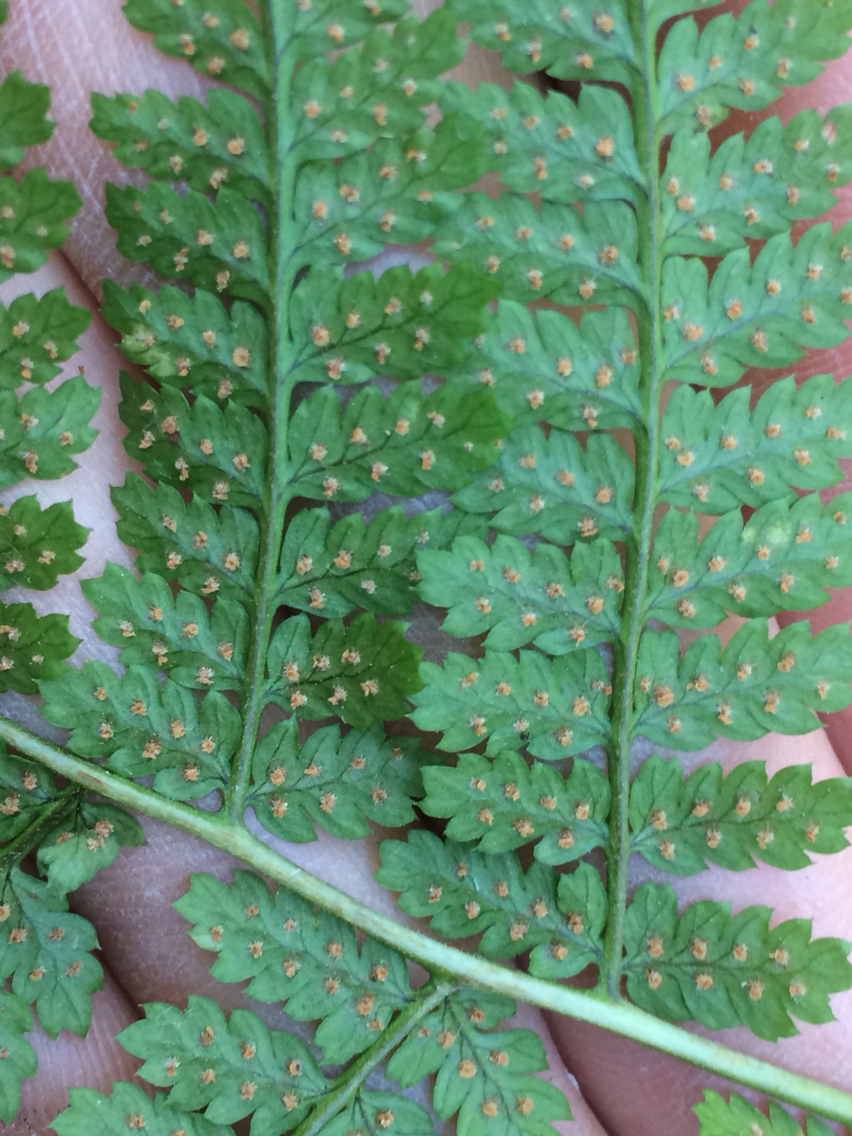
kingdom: Plantae
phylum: Tracheophyta
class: Polypodiopsida
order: Polypodiales
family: Dryopteridaceae
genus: Dryopteris
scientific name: Dryopteris intermedia
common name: Evergreen wood fern
